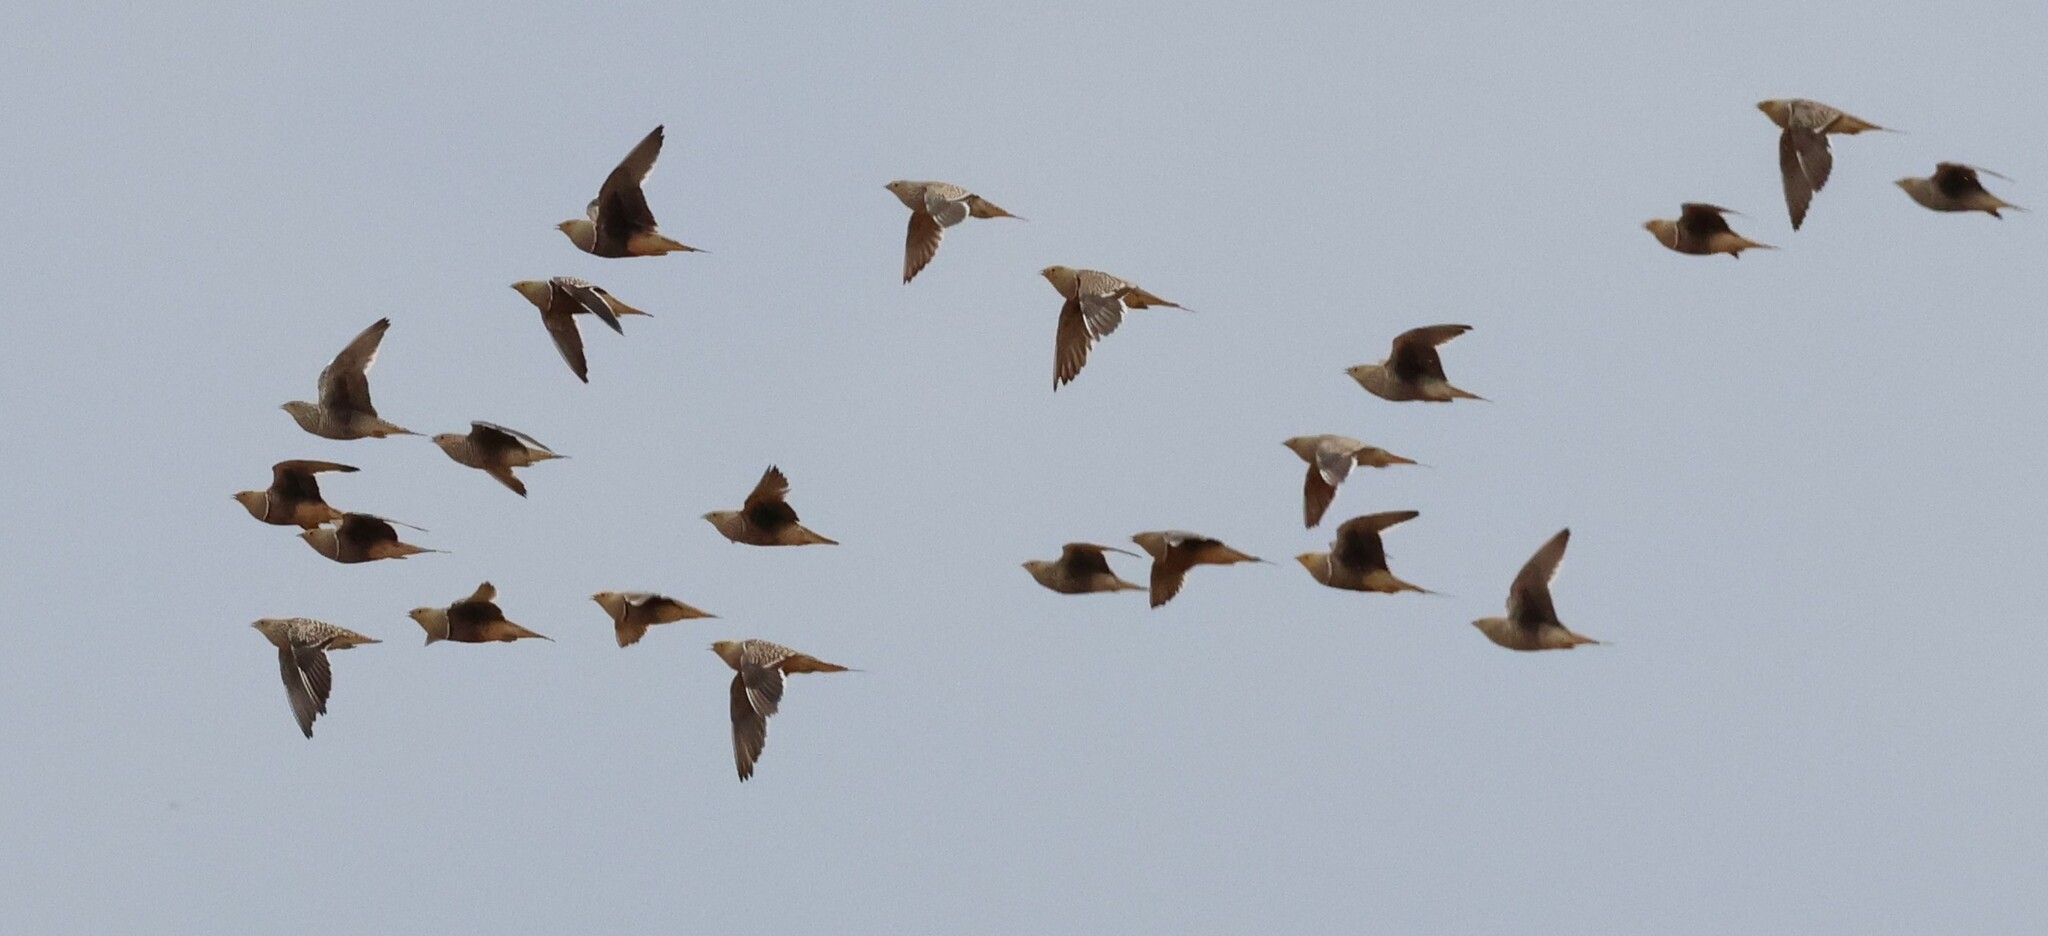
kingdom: Animalia
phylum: Chordata
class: Aves
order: Pteroclidiformes
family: Pteroclididae
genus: Pterocles
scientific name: Pterocles namaqua
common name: Namaqua sandgrouse
